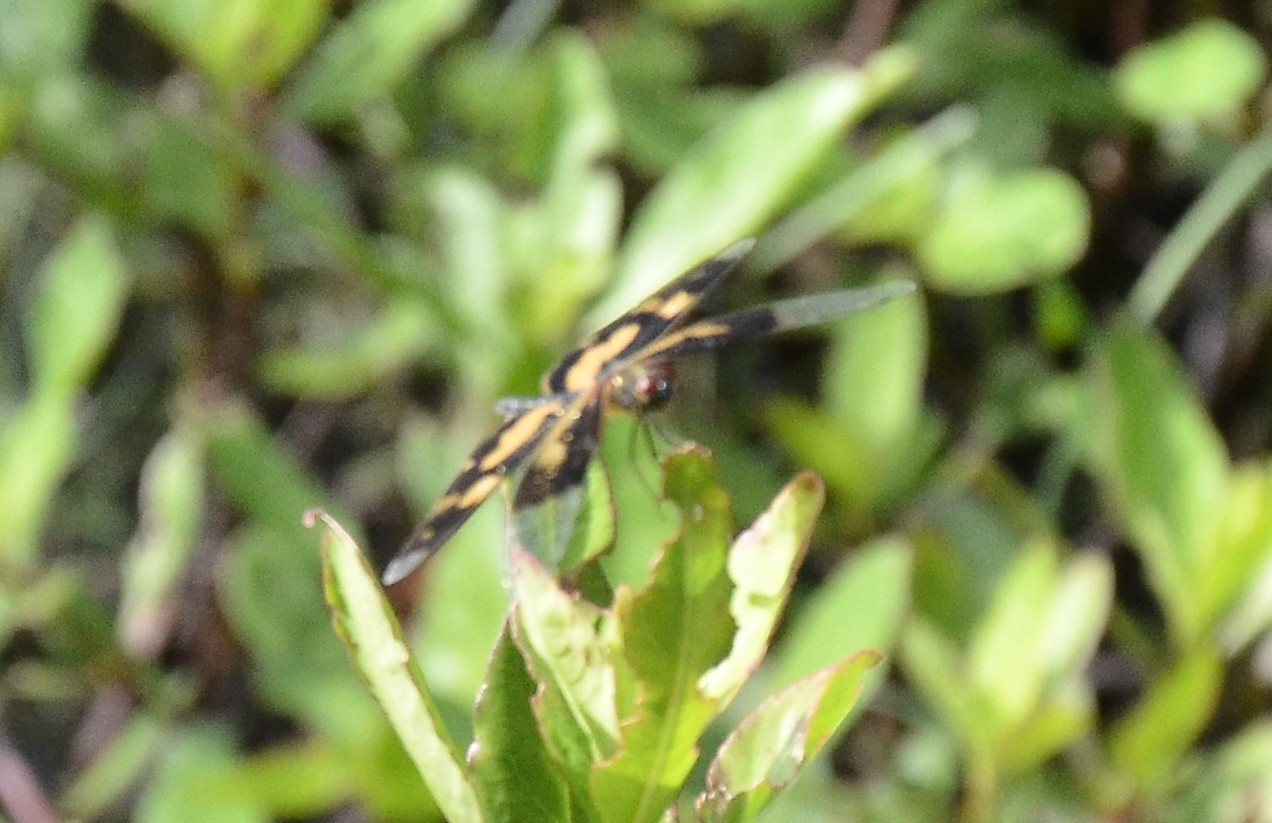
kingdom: Animalia
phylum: Arthropoda
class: Insecta
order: Odonata
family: Libellulidae
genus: Rhyothemis
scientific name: Rhyothemis variegata
